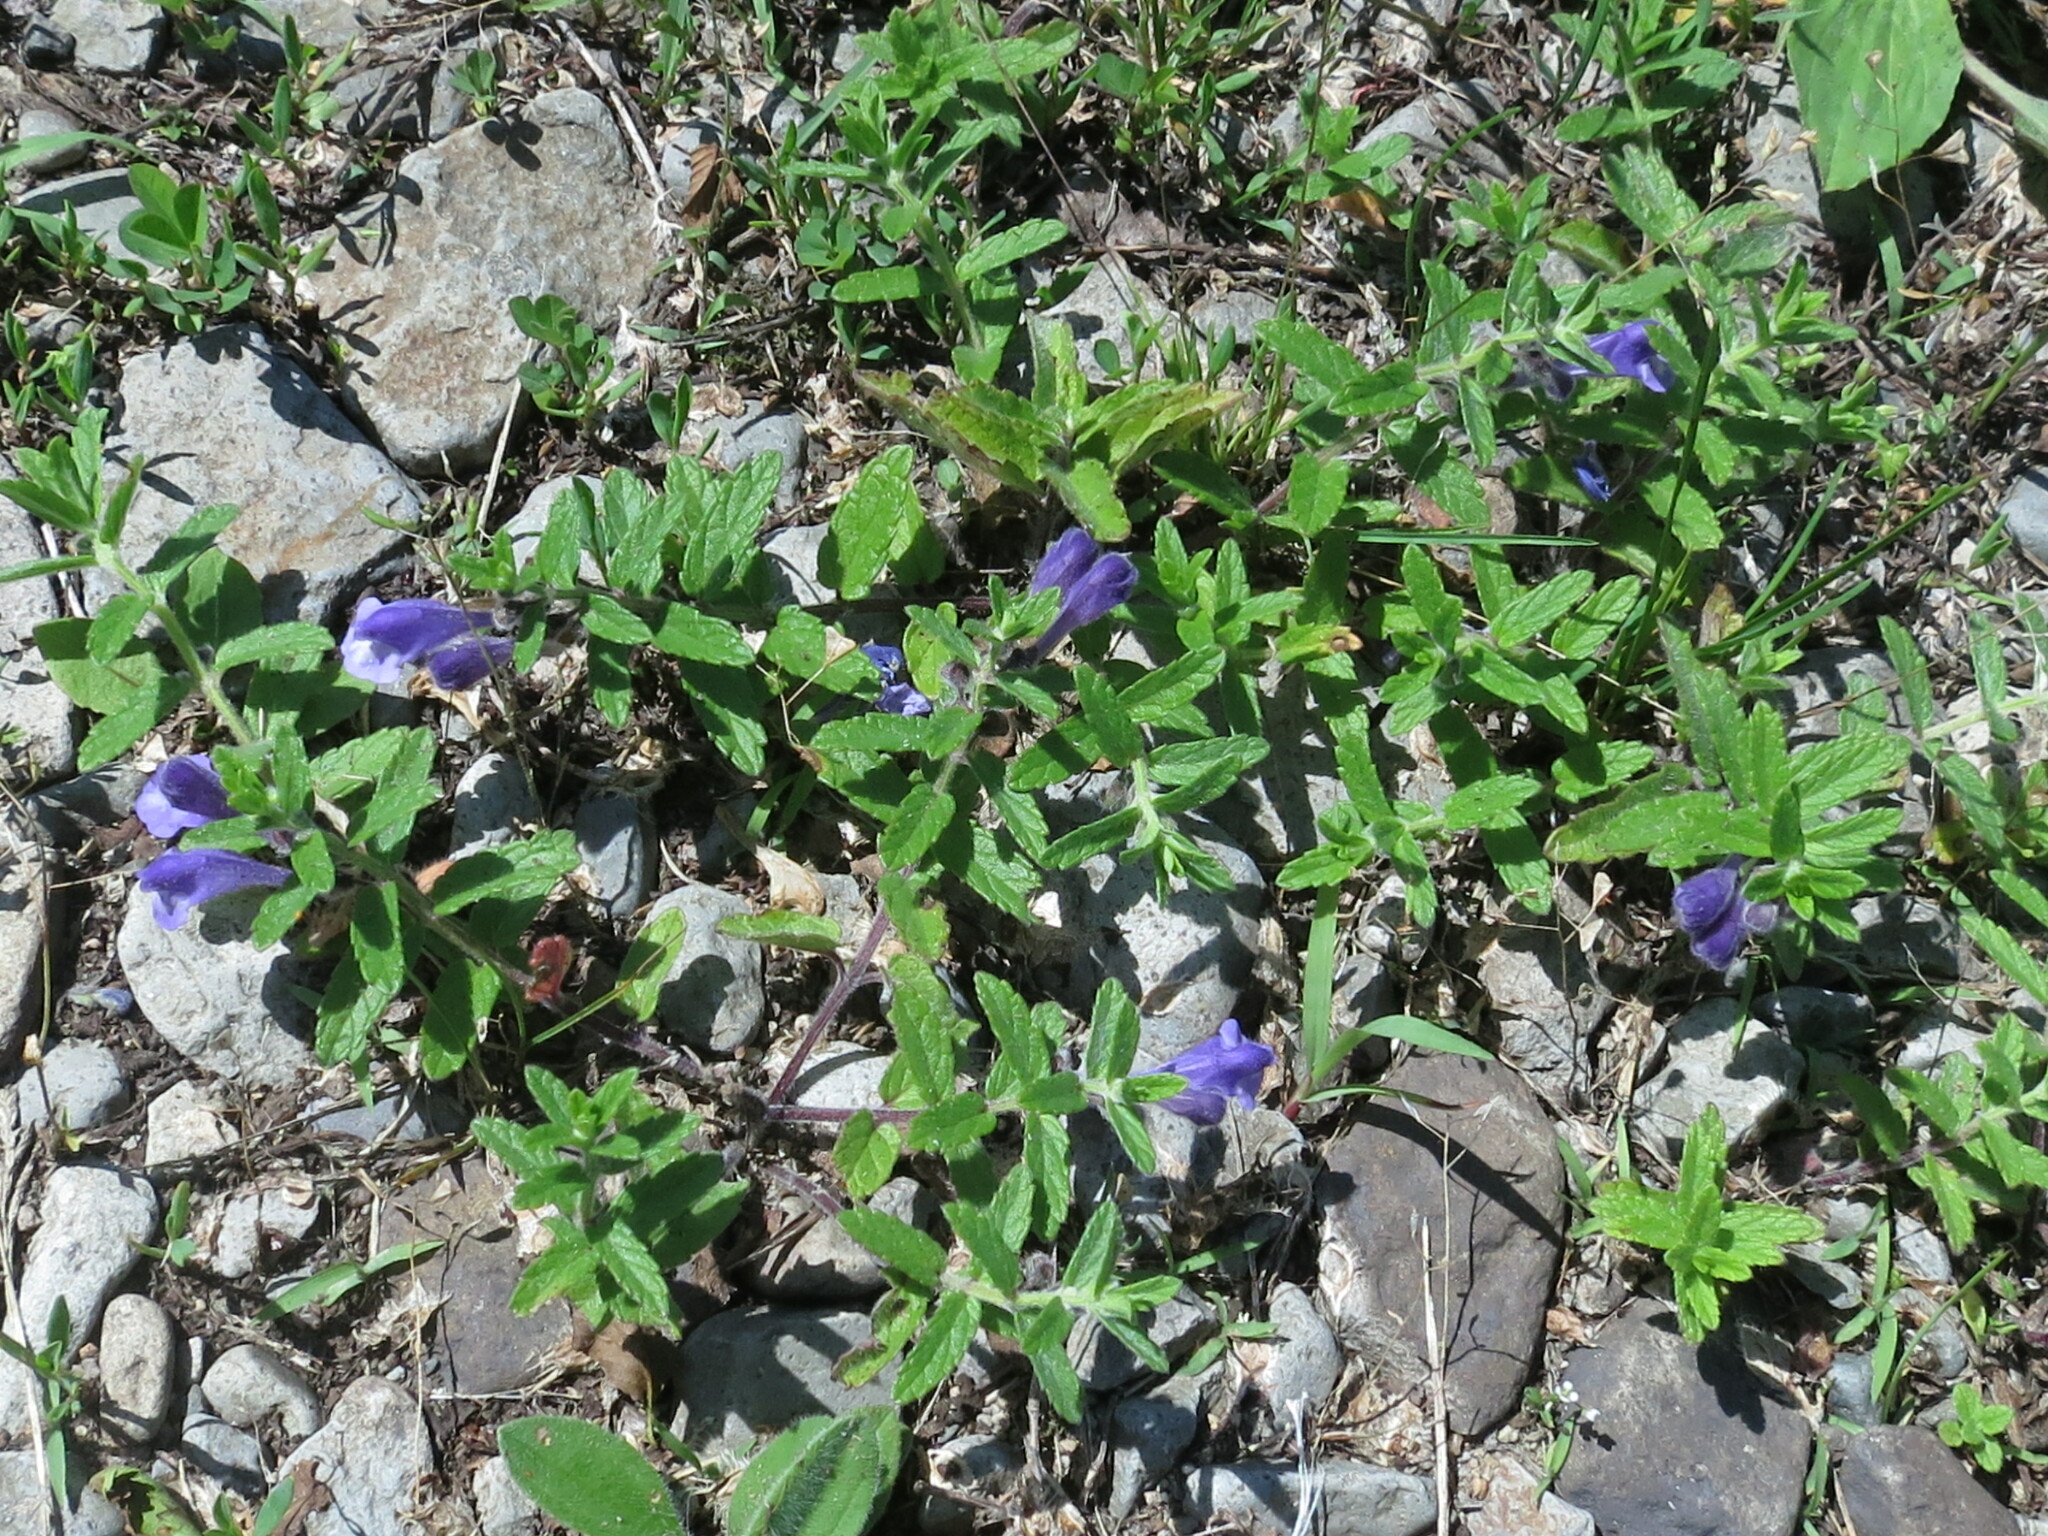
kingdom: Plantae
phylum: Tracheophyta
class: Magnoliopsida
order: Lamiales
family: Lamiaceae
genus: Scutellaria
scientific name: Scutellaria strigillosa
